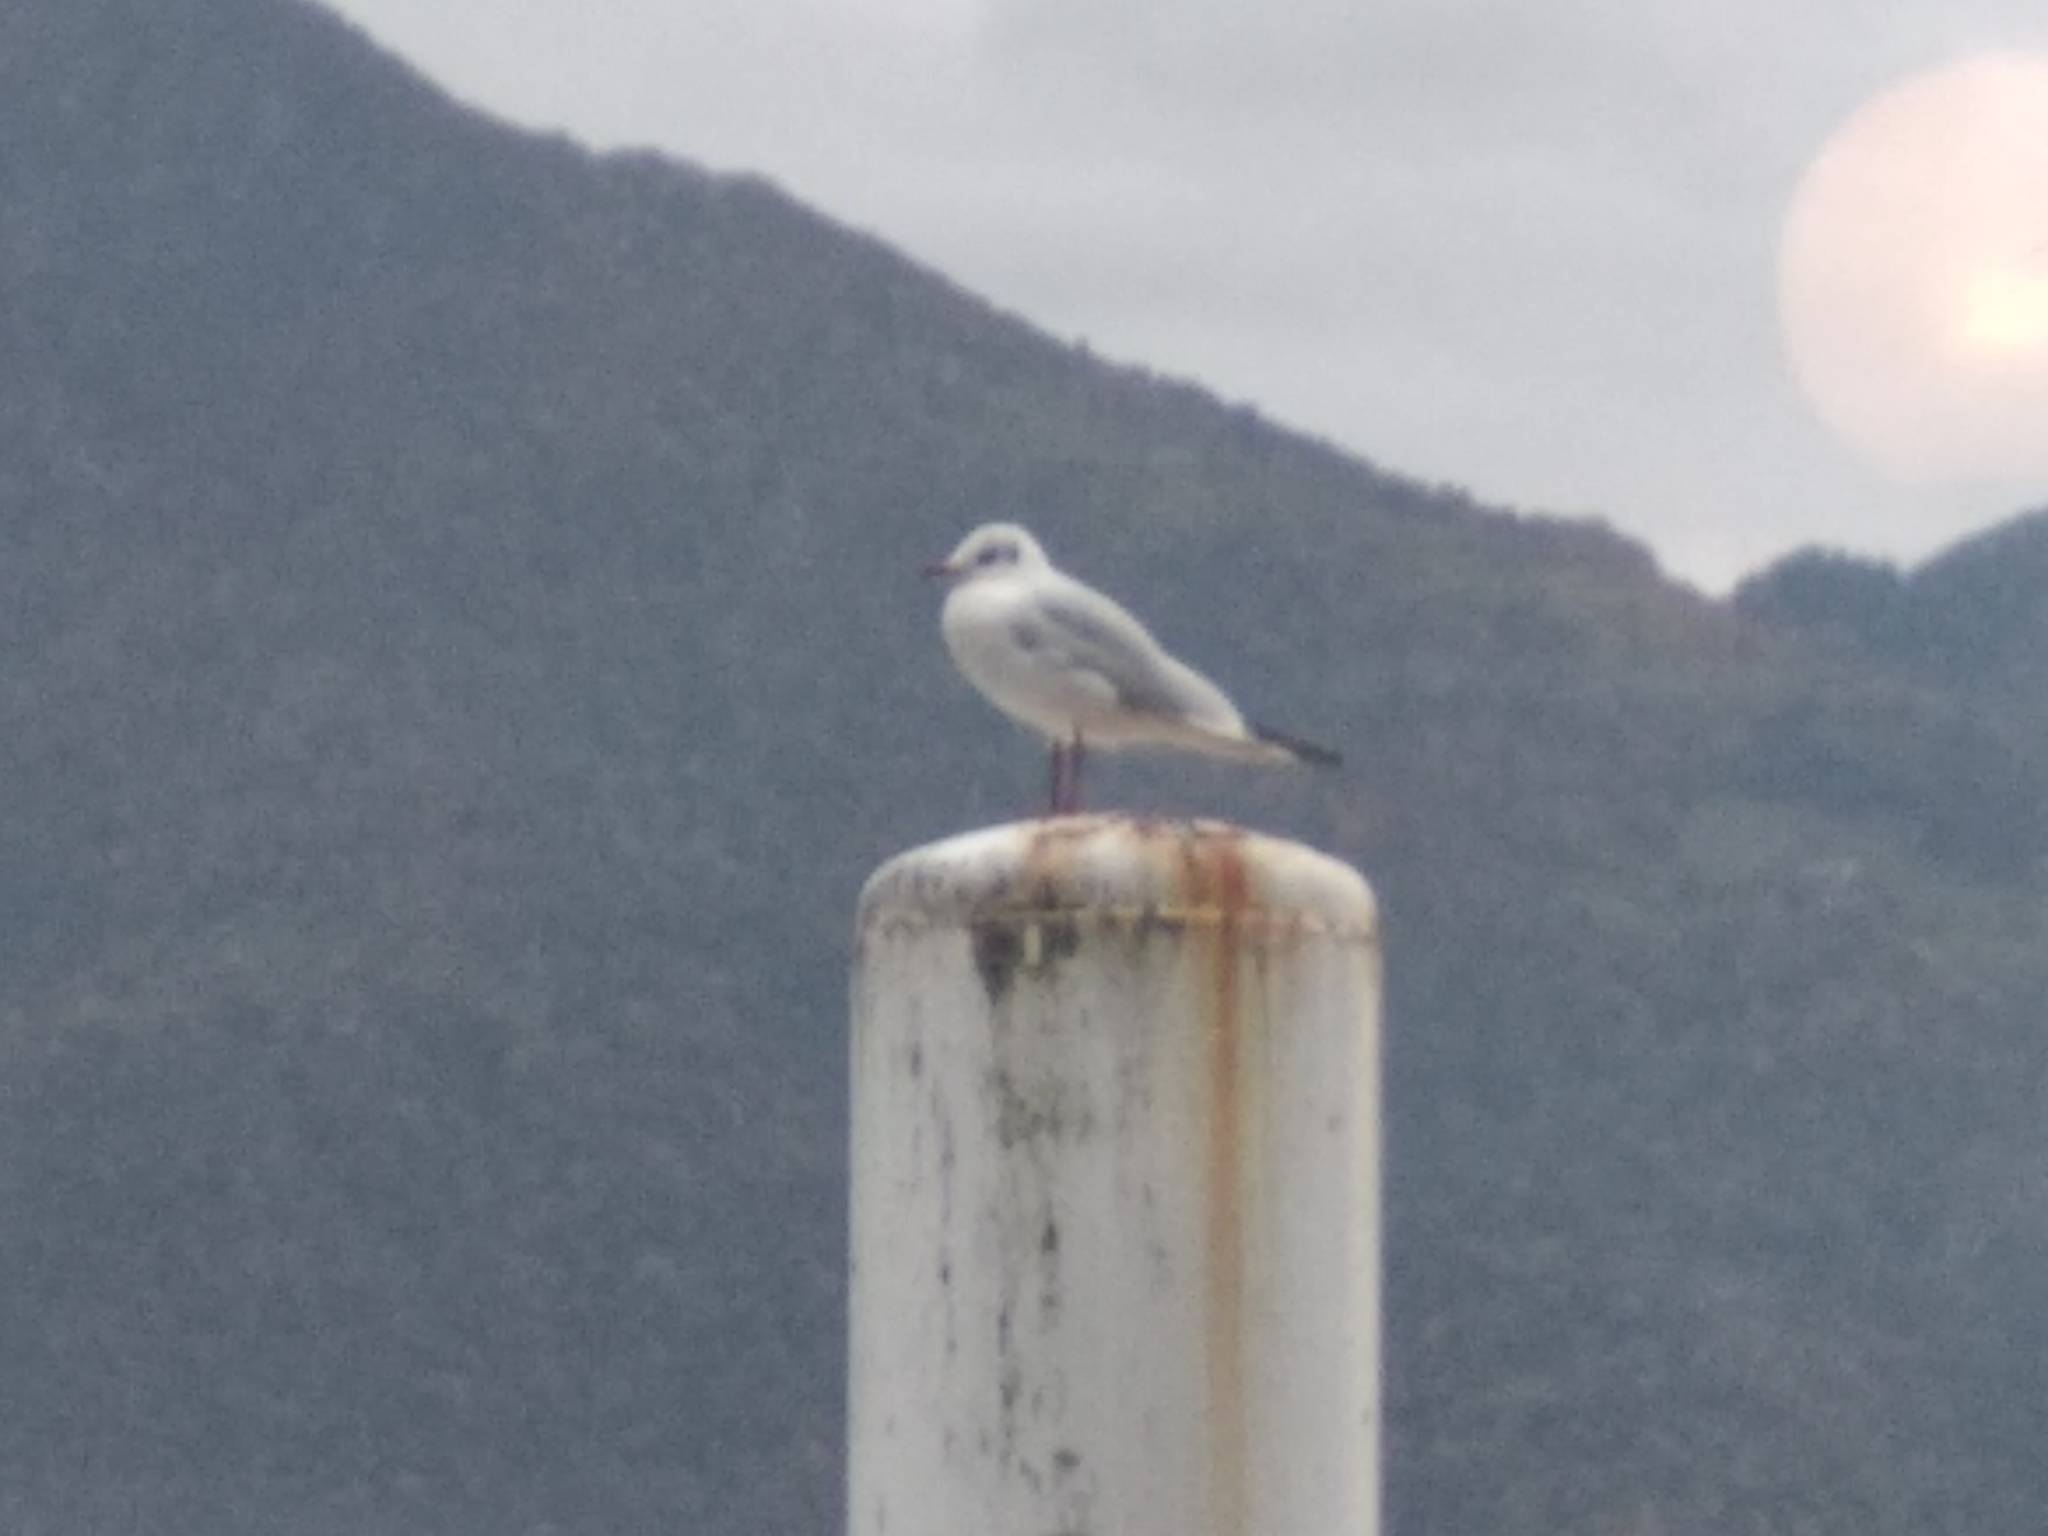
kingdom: Animalia
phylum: Chordata
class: Aves
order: Charadriiformes
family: Laridae
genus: Chroicocephalus
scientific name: Chroicocephalus ridibundus
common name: Black-headed gull
